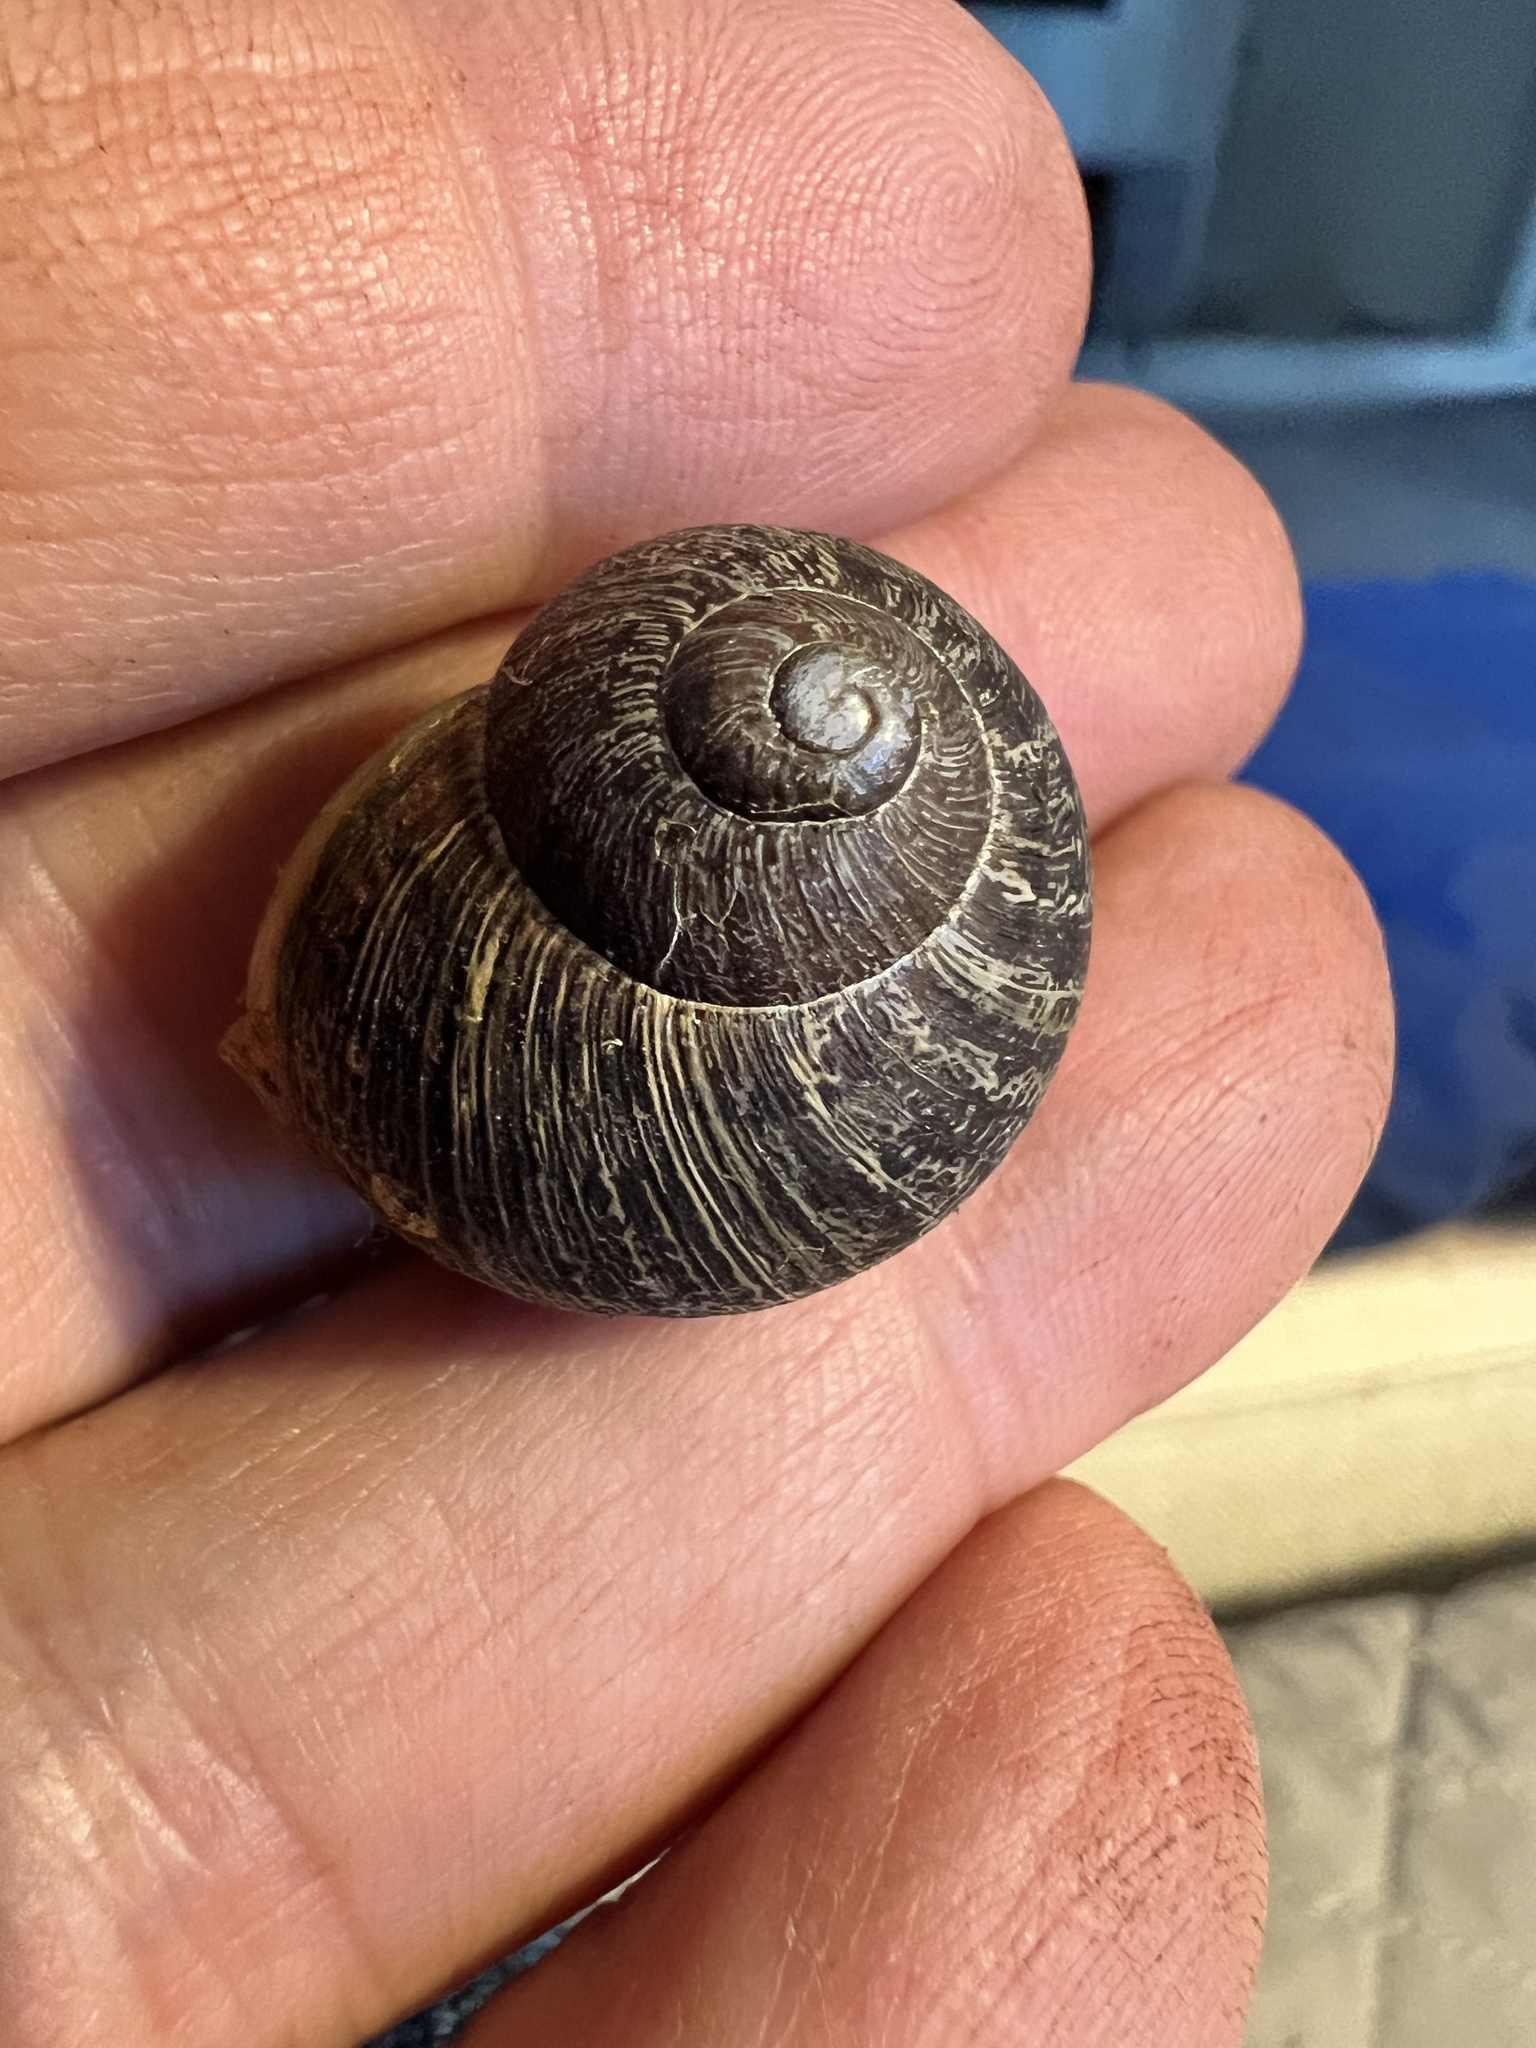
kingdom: Animalia
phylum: Mollusca
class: Gastropoda
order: Stylommatophora
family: Helicidae
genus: Cornu
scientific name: Cornu aspersum
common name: Brown garden snail
